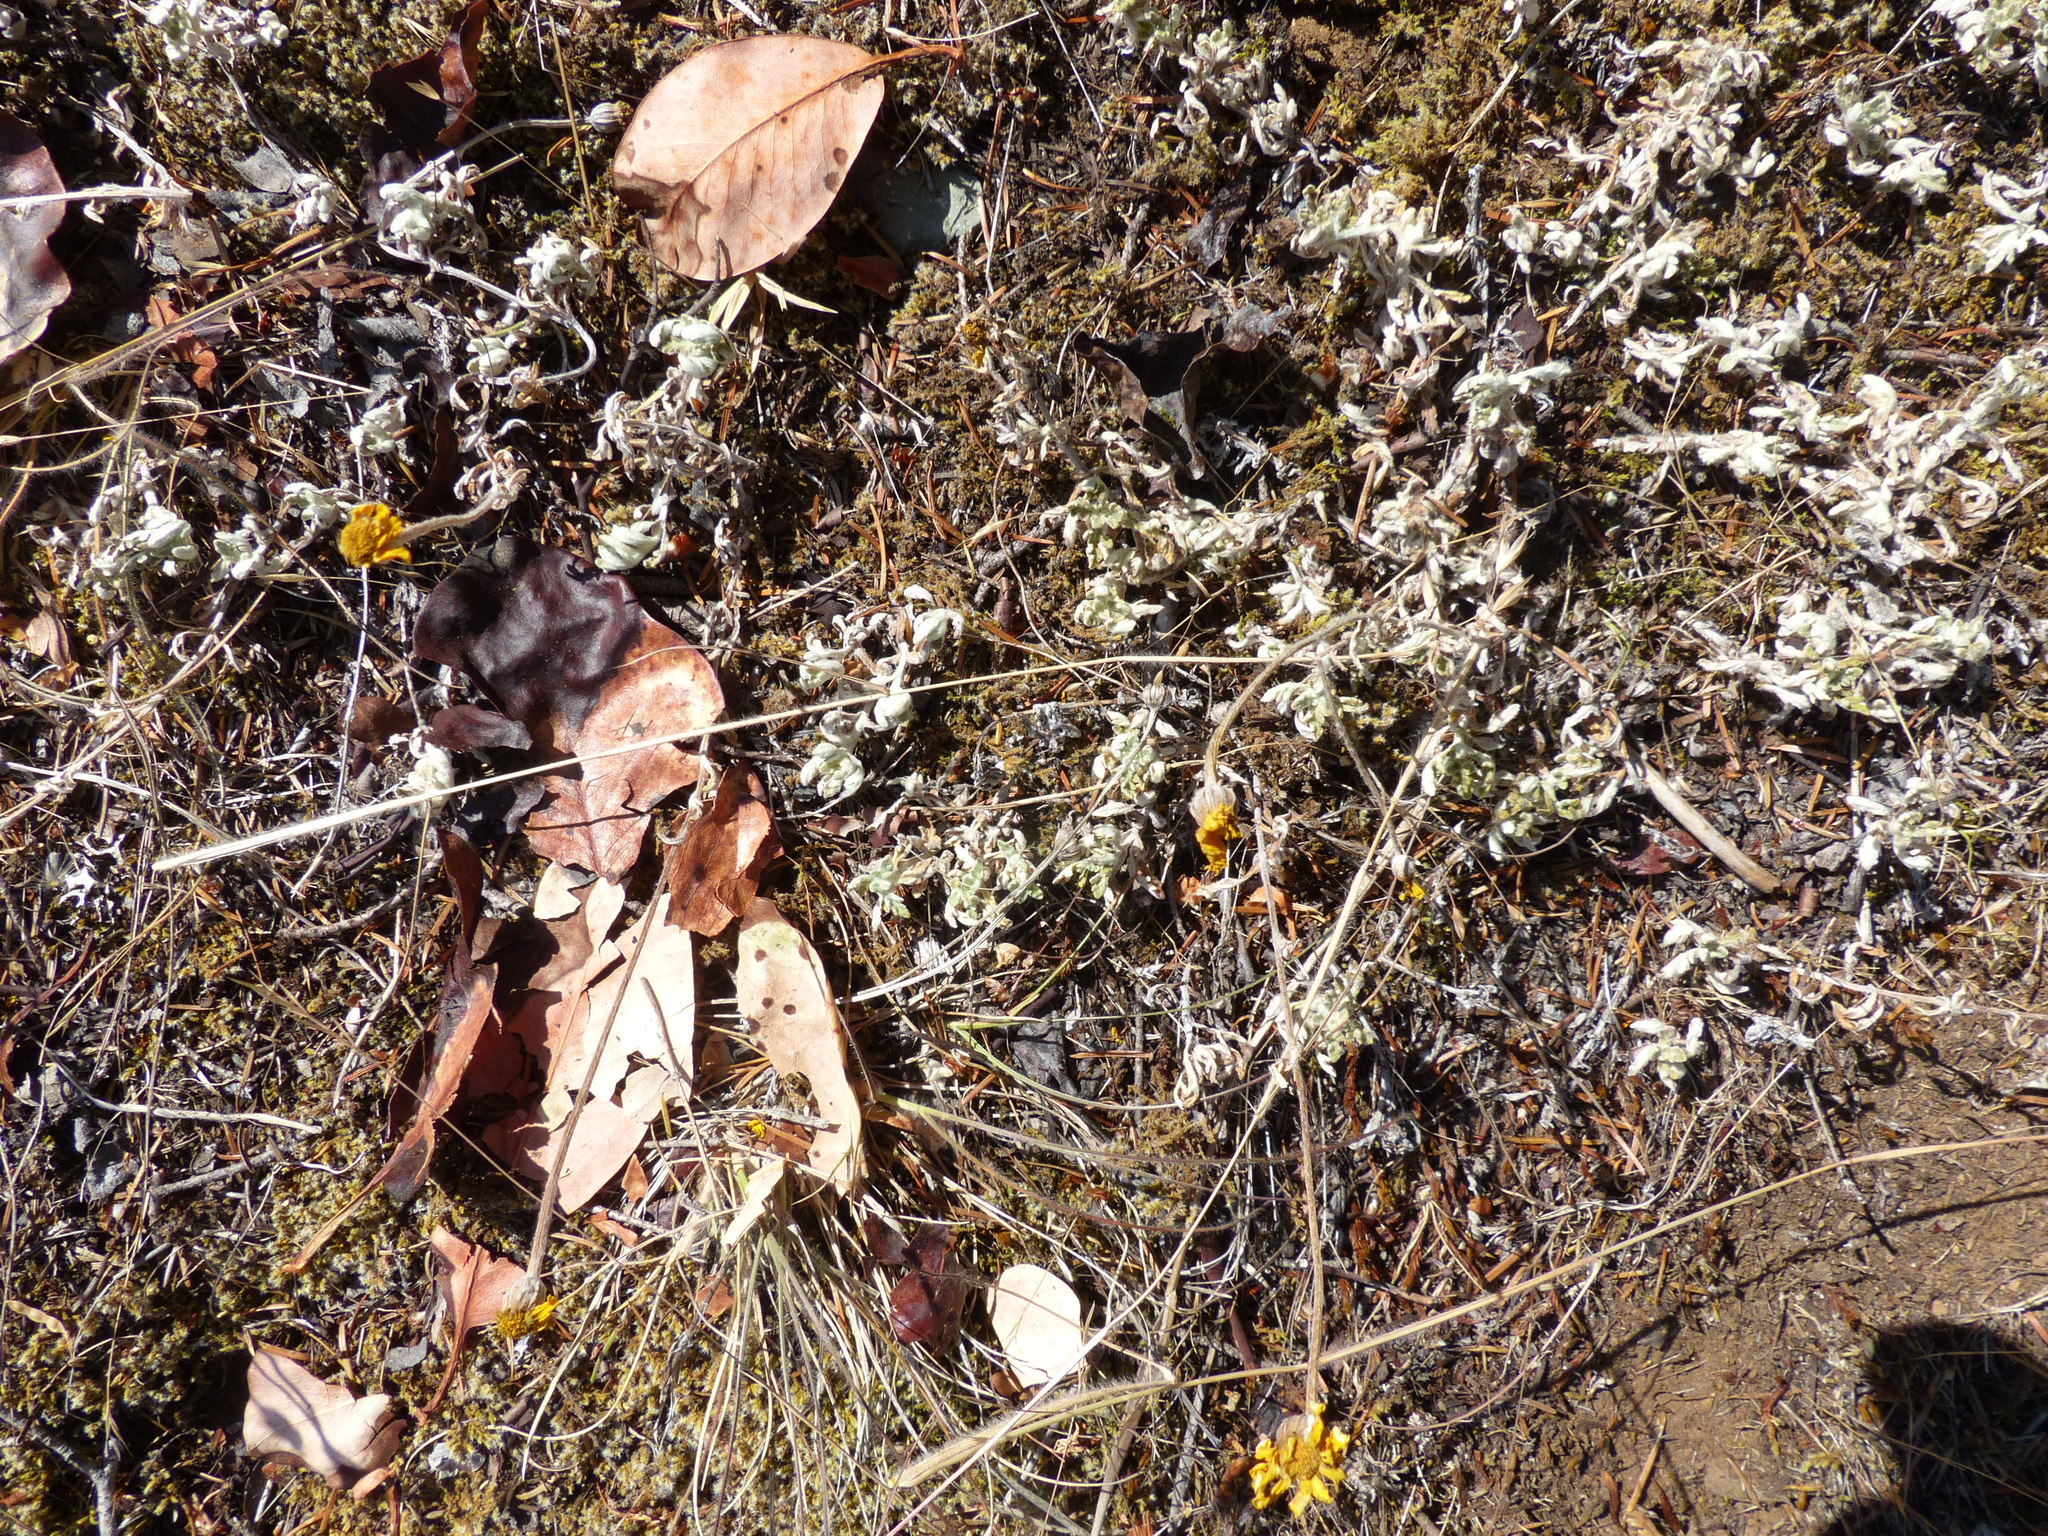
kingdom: Plantae
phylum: Tracheophyta
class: Magnoliopsida
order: Asterales
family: Asteraceae
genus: Eriophyllum
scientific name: Eriophyllum lanatum
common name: Common woolly-sunflower
